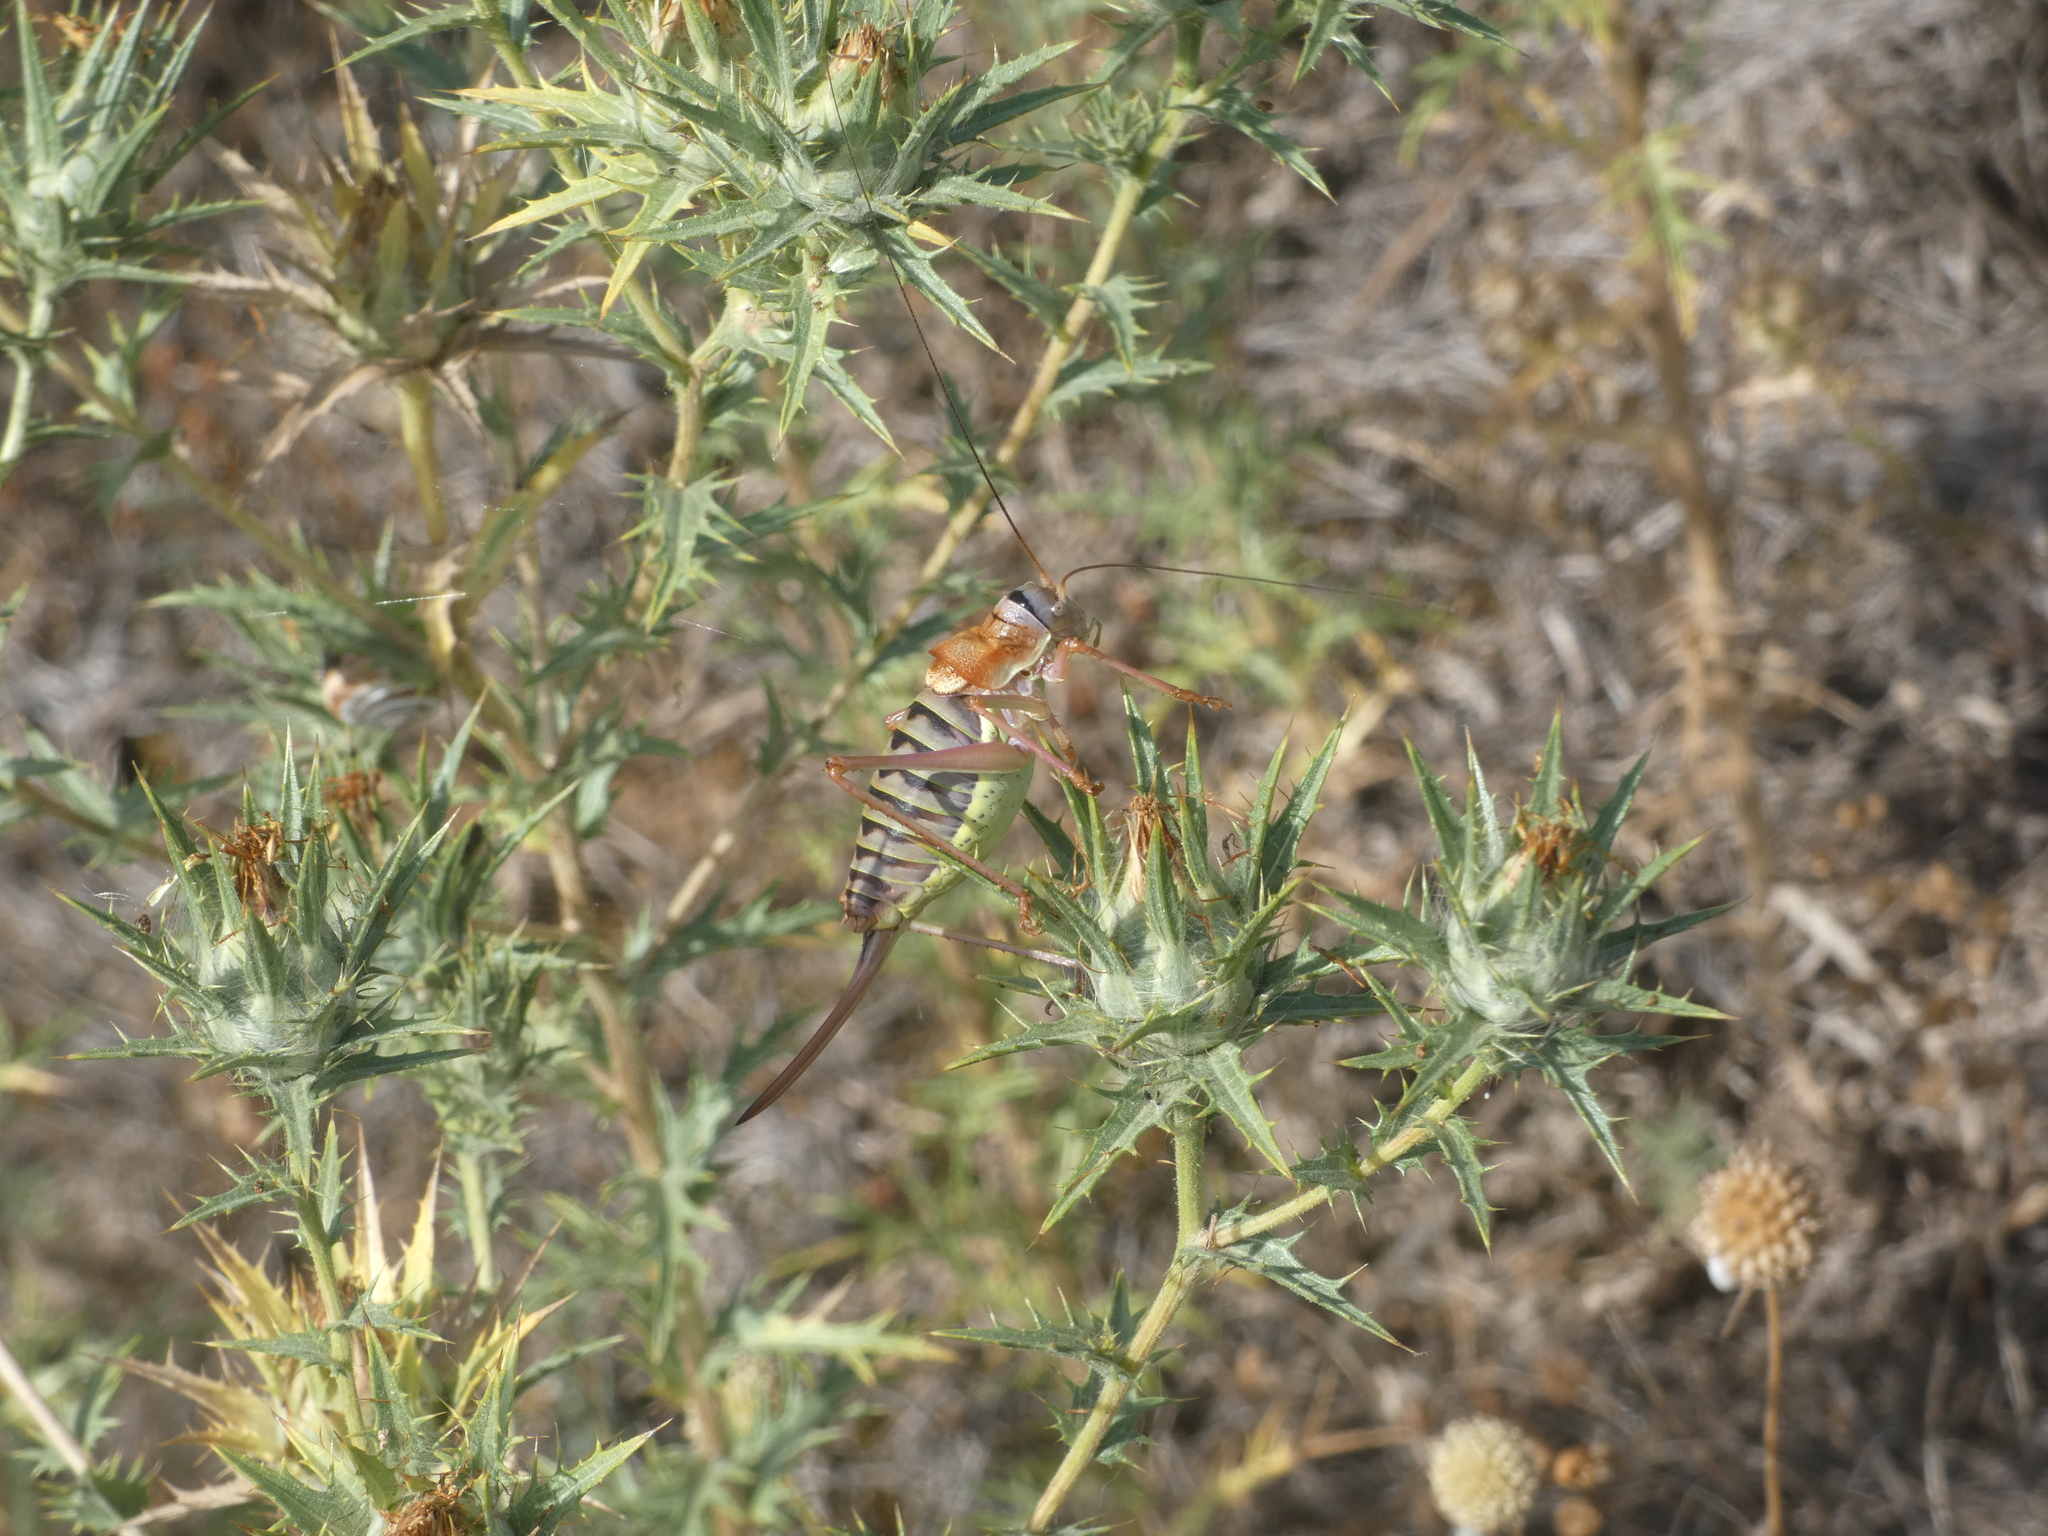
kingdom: Animalia
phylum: Arthropoda
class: Insecta
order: Orthoptera
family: Tettigoniidae
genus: Ephippiger
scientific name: Ephippiger diurnus
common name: Western saddle bush-cricket
